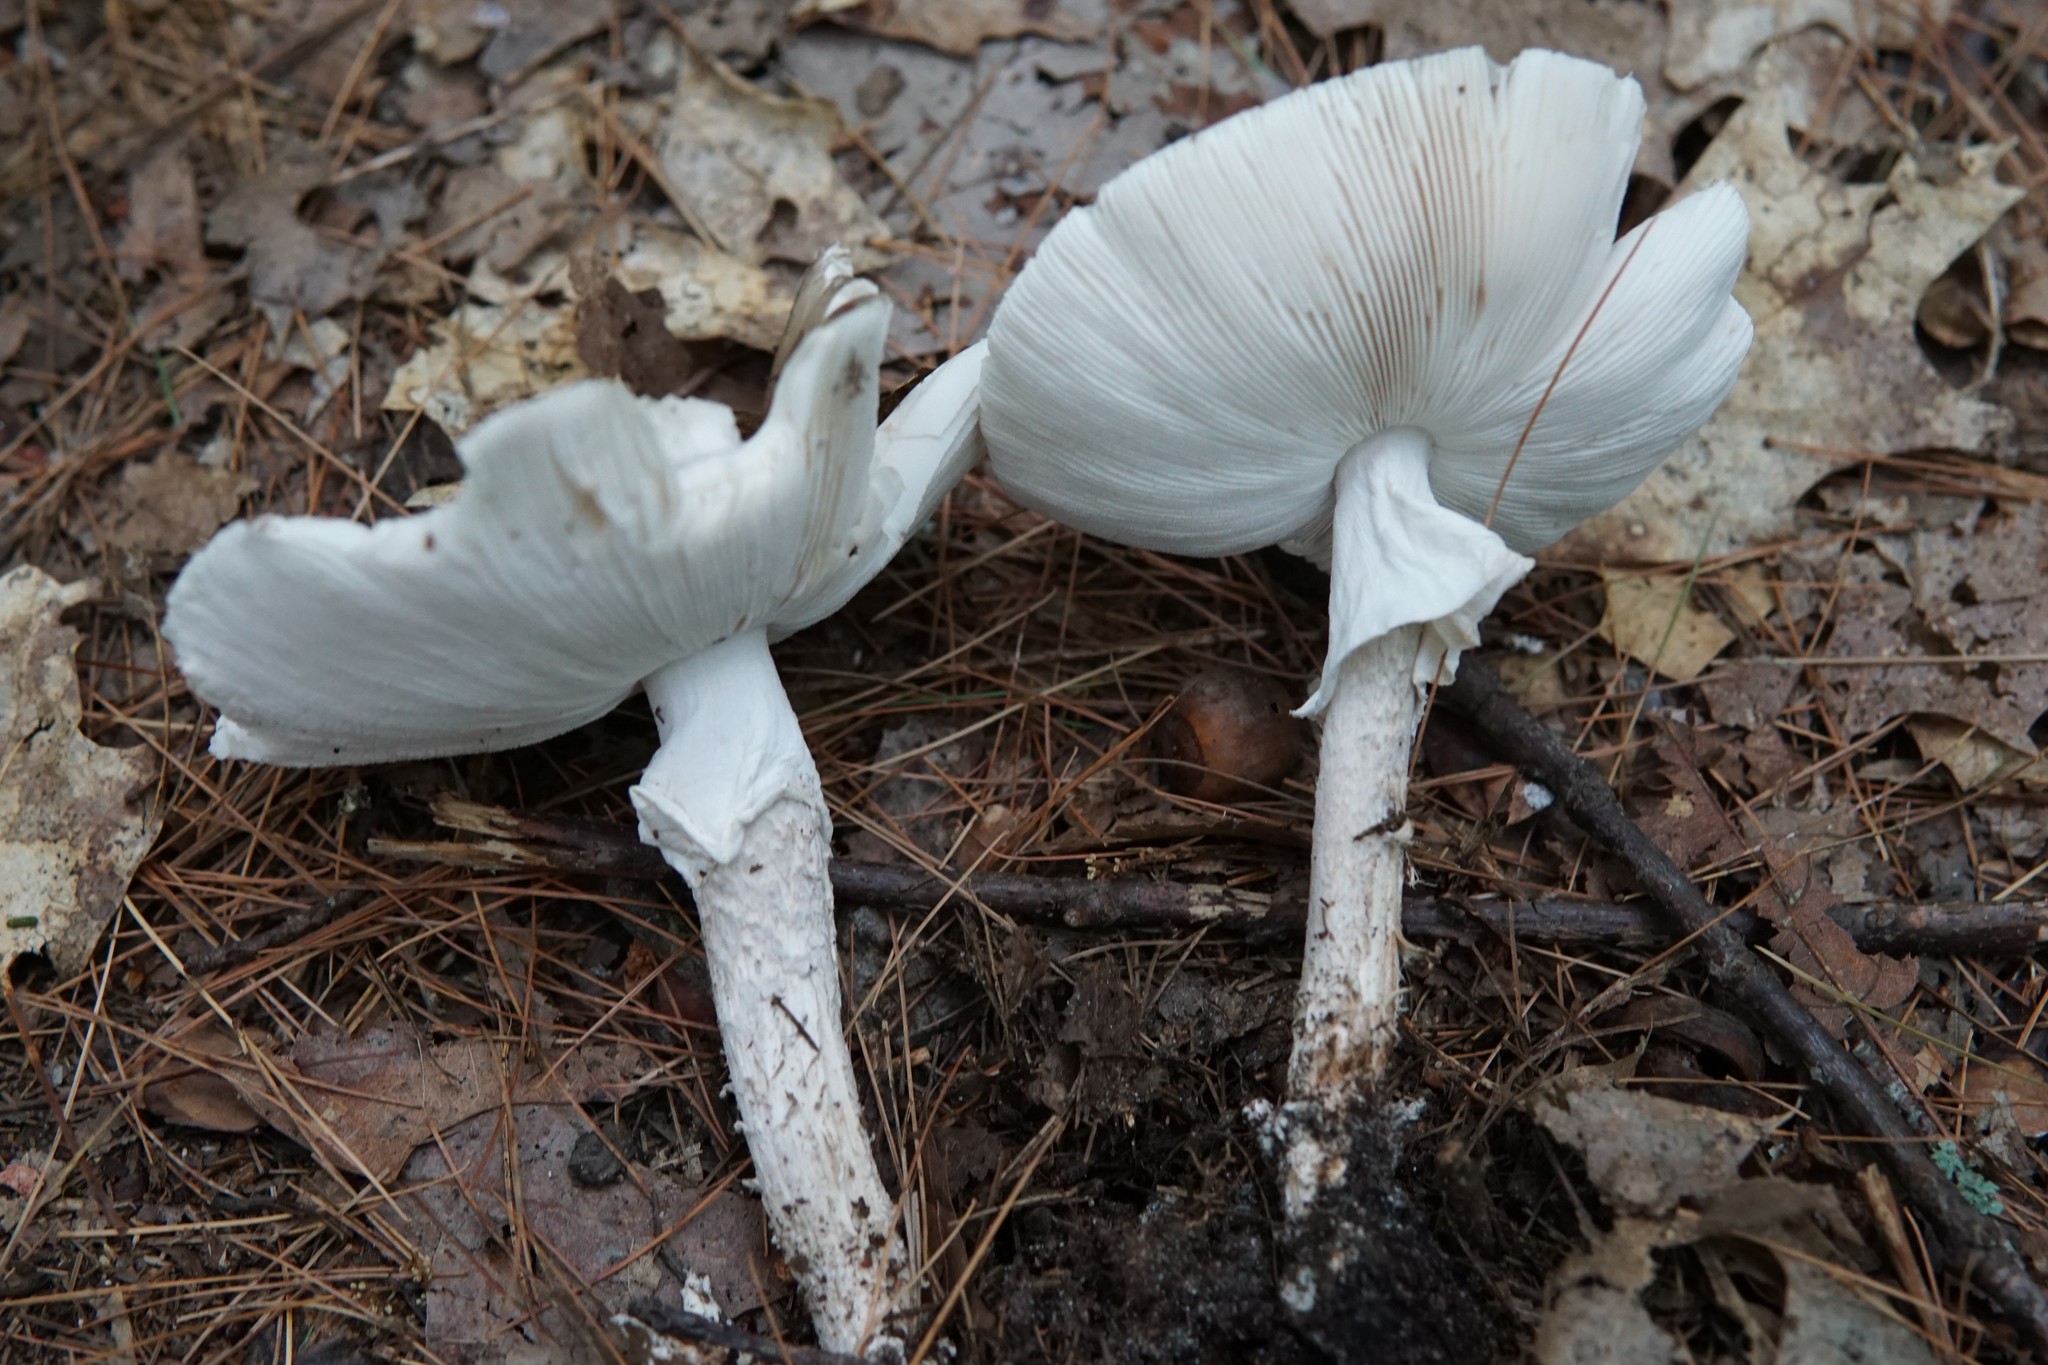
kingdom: Fungi
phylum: Basidiomycota
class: Agaricomycetes
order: Agaricales
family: Amanitaceae
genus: Amanita
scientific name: Amanita submaculata
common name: Ball gown amanita
